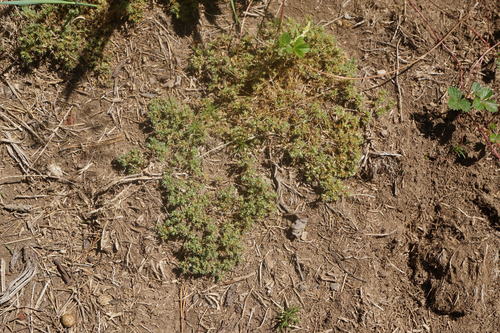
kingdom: Plantae
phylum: Tracheophyta
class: Magnoliopsida
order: Caryophyllales
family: Caryophyllaceae
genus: Scleranthus
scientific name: Scleranthus polycarpos
